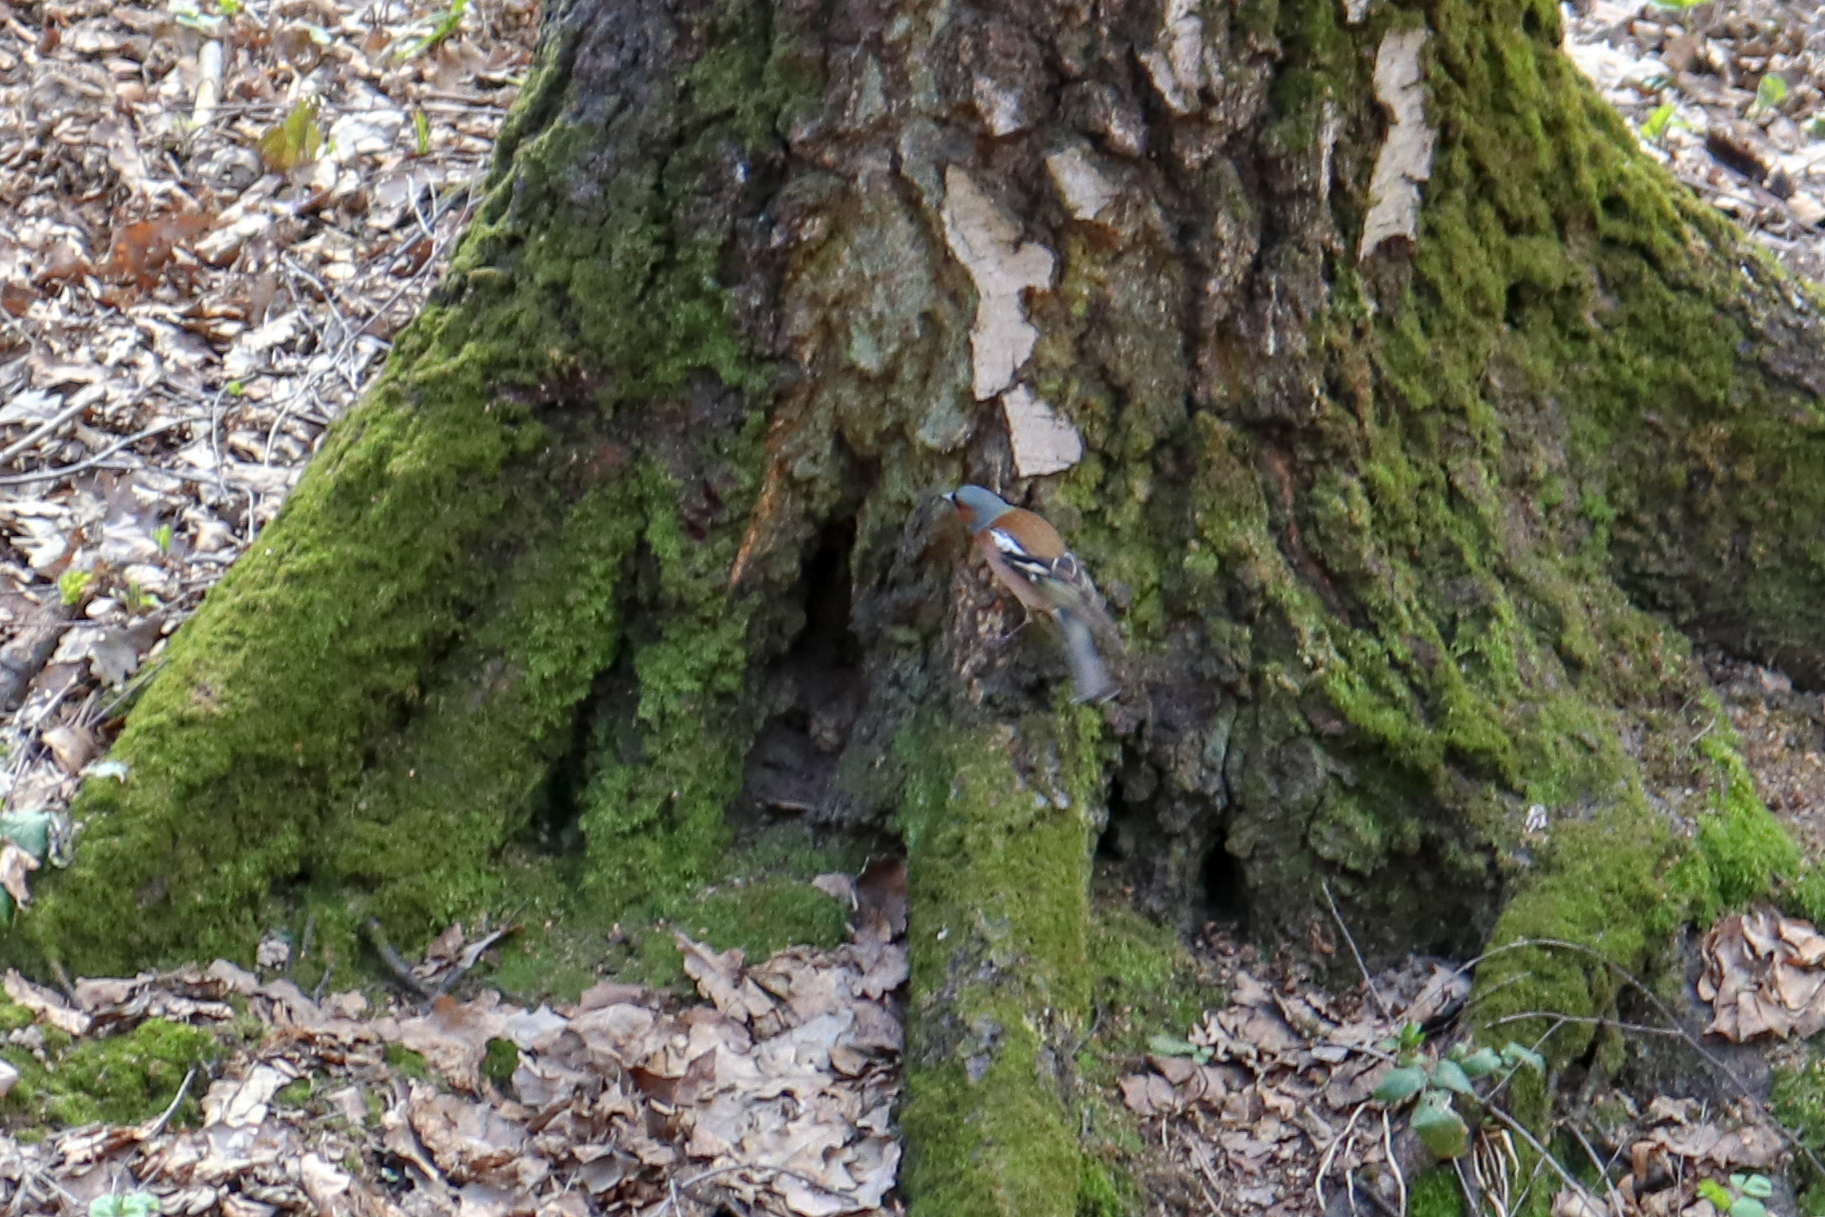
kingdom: Animalia
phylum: Chordata
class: Aves
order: Passeriformes
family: Fringillidae
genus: Fringilla
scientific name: Fringilla coelebs
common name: Common chaffinch
